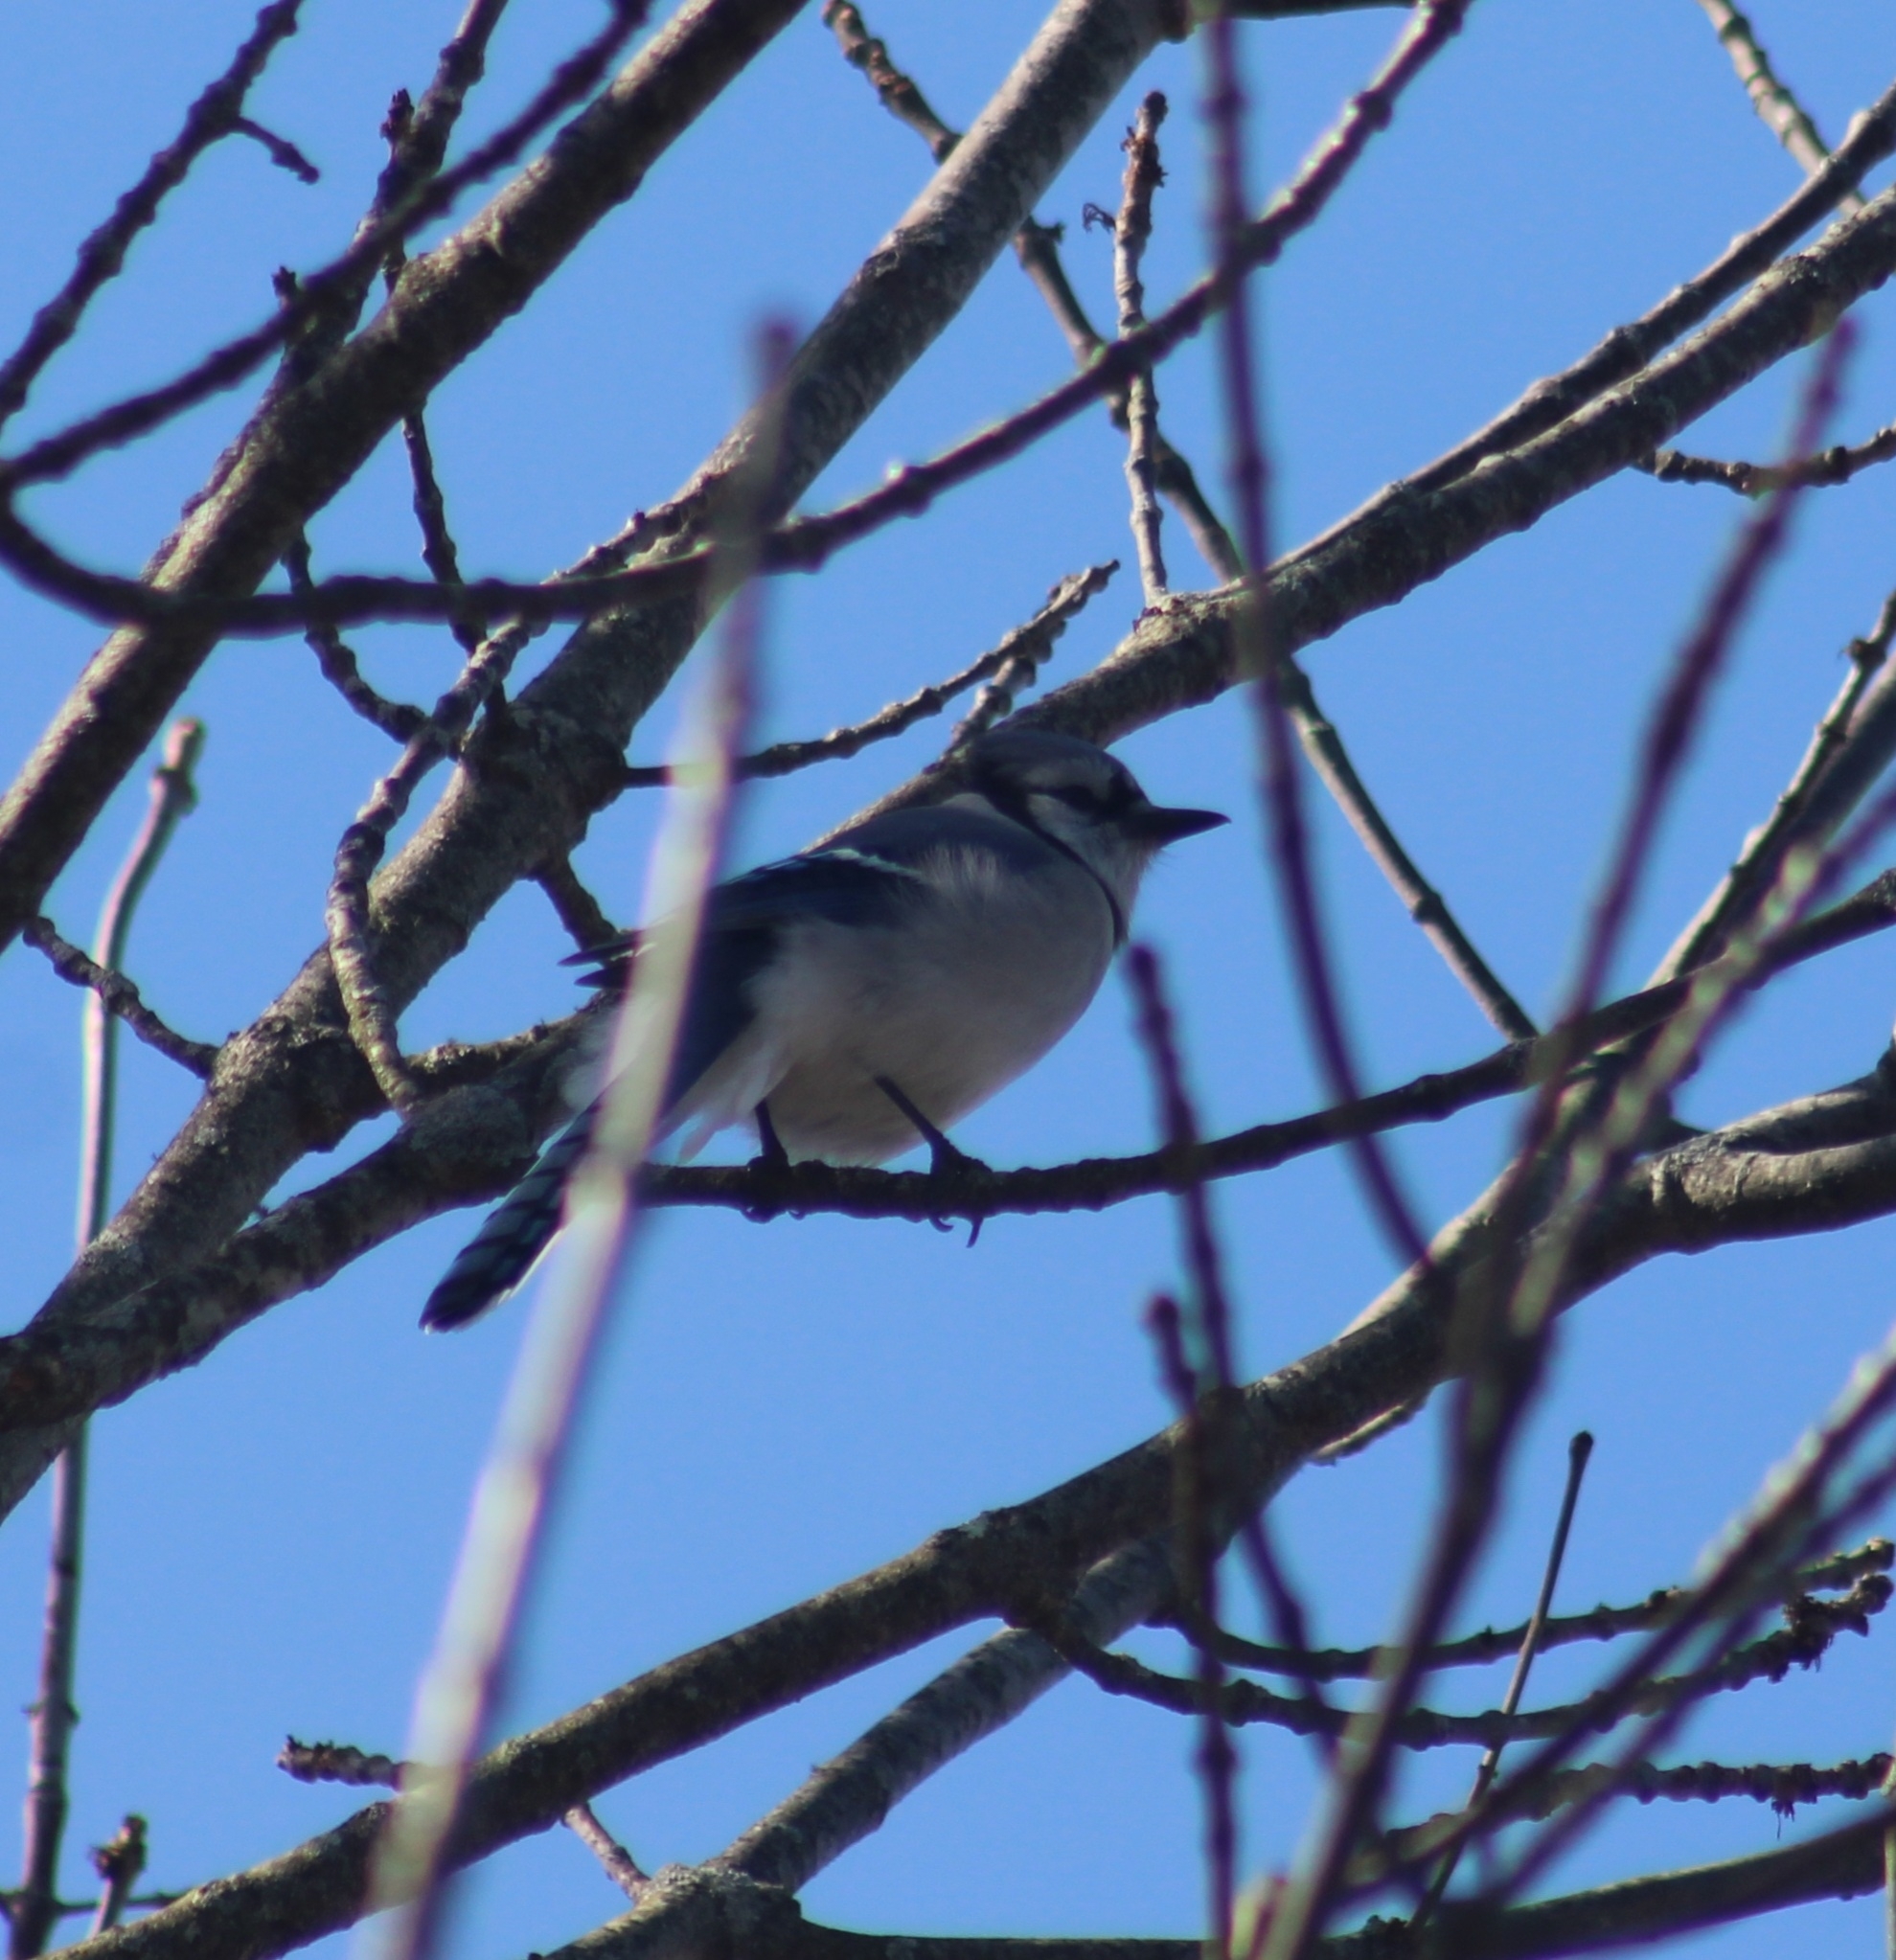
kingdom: Animalia
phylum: Chordata
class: Aves
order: Passeriformes
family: Corvidae
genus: Cyanocitta
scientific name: Cyanocitta cristata
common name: Blue jay
